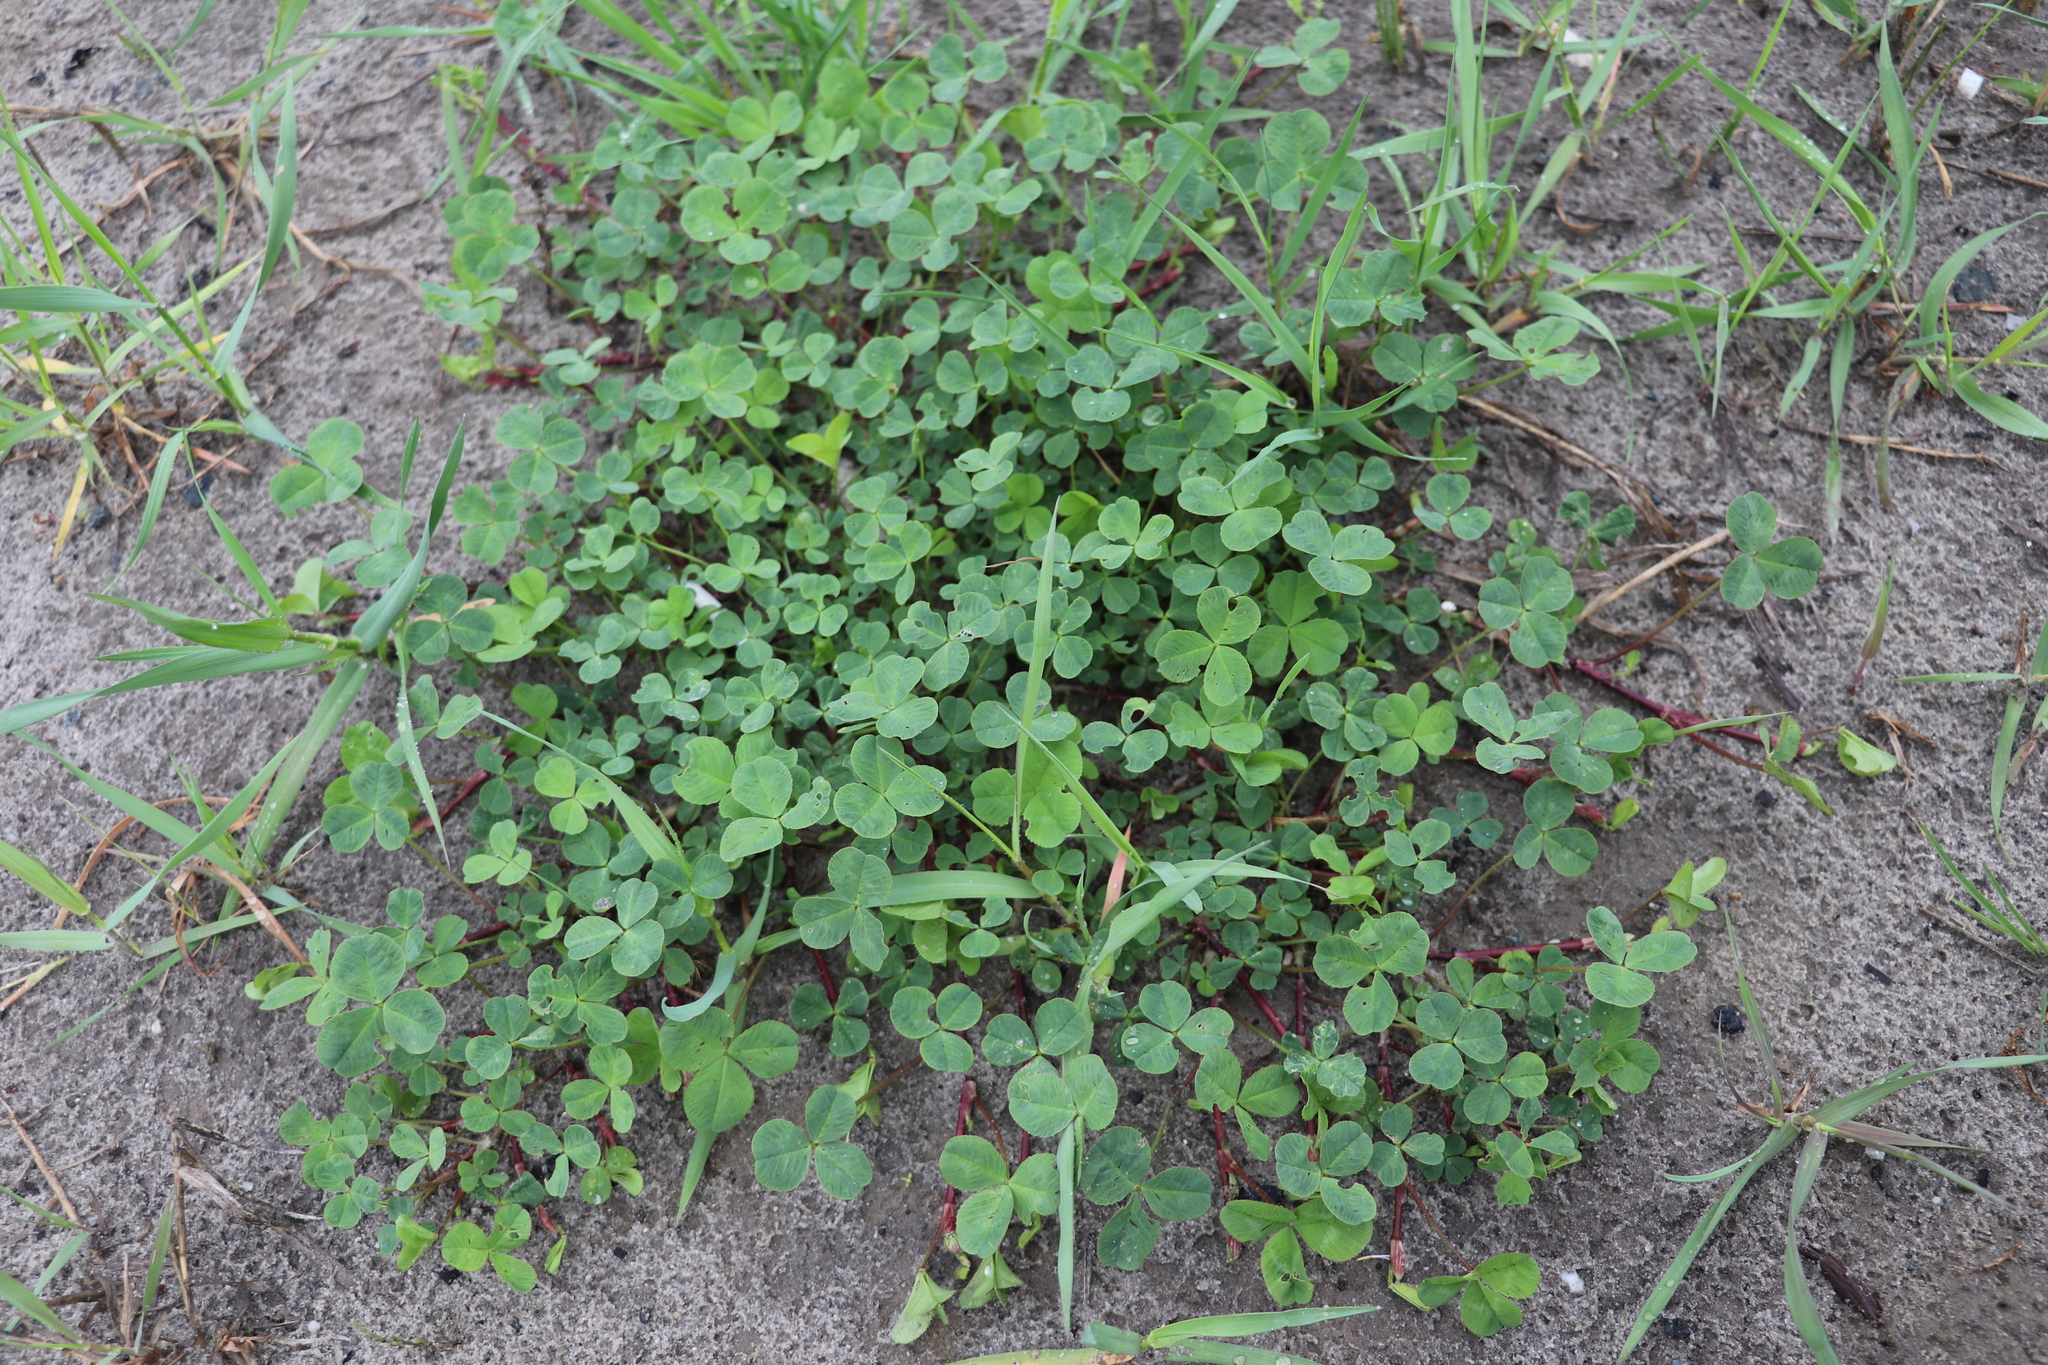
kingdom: Plantae
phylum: Tracheophyta
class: Magnoliopsida
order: Fabales
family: Fabaceae
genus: Trifolium
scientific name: Trifolium repens
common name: White clover
